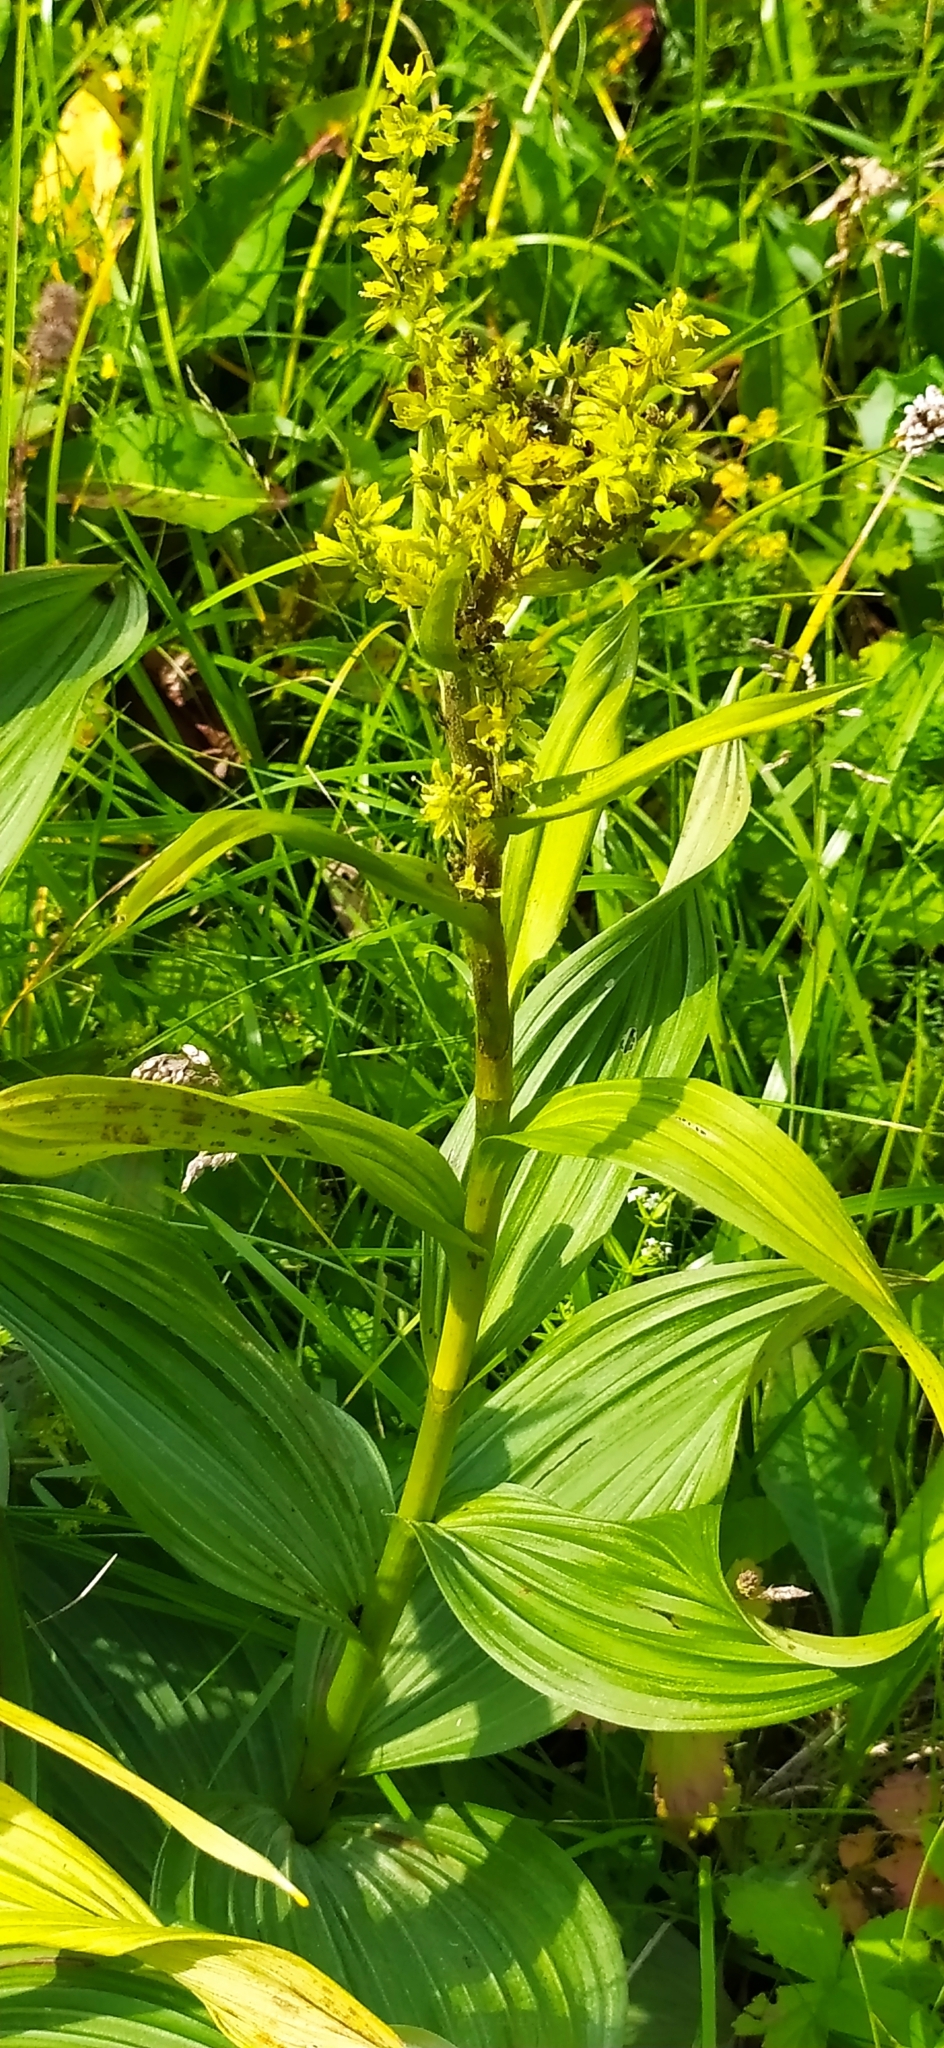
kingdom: Plantae
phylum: Tracheophyta
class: Liliopsida
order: Liliales
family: Melanthiaceae
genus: Veratrum
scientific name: Veratrum lobelianum
